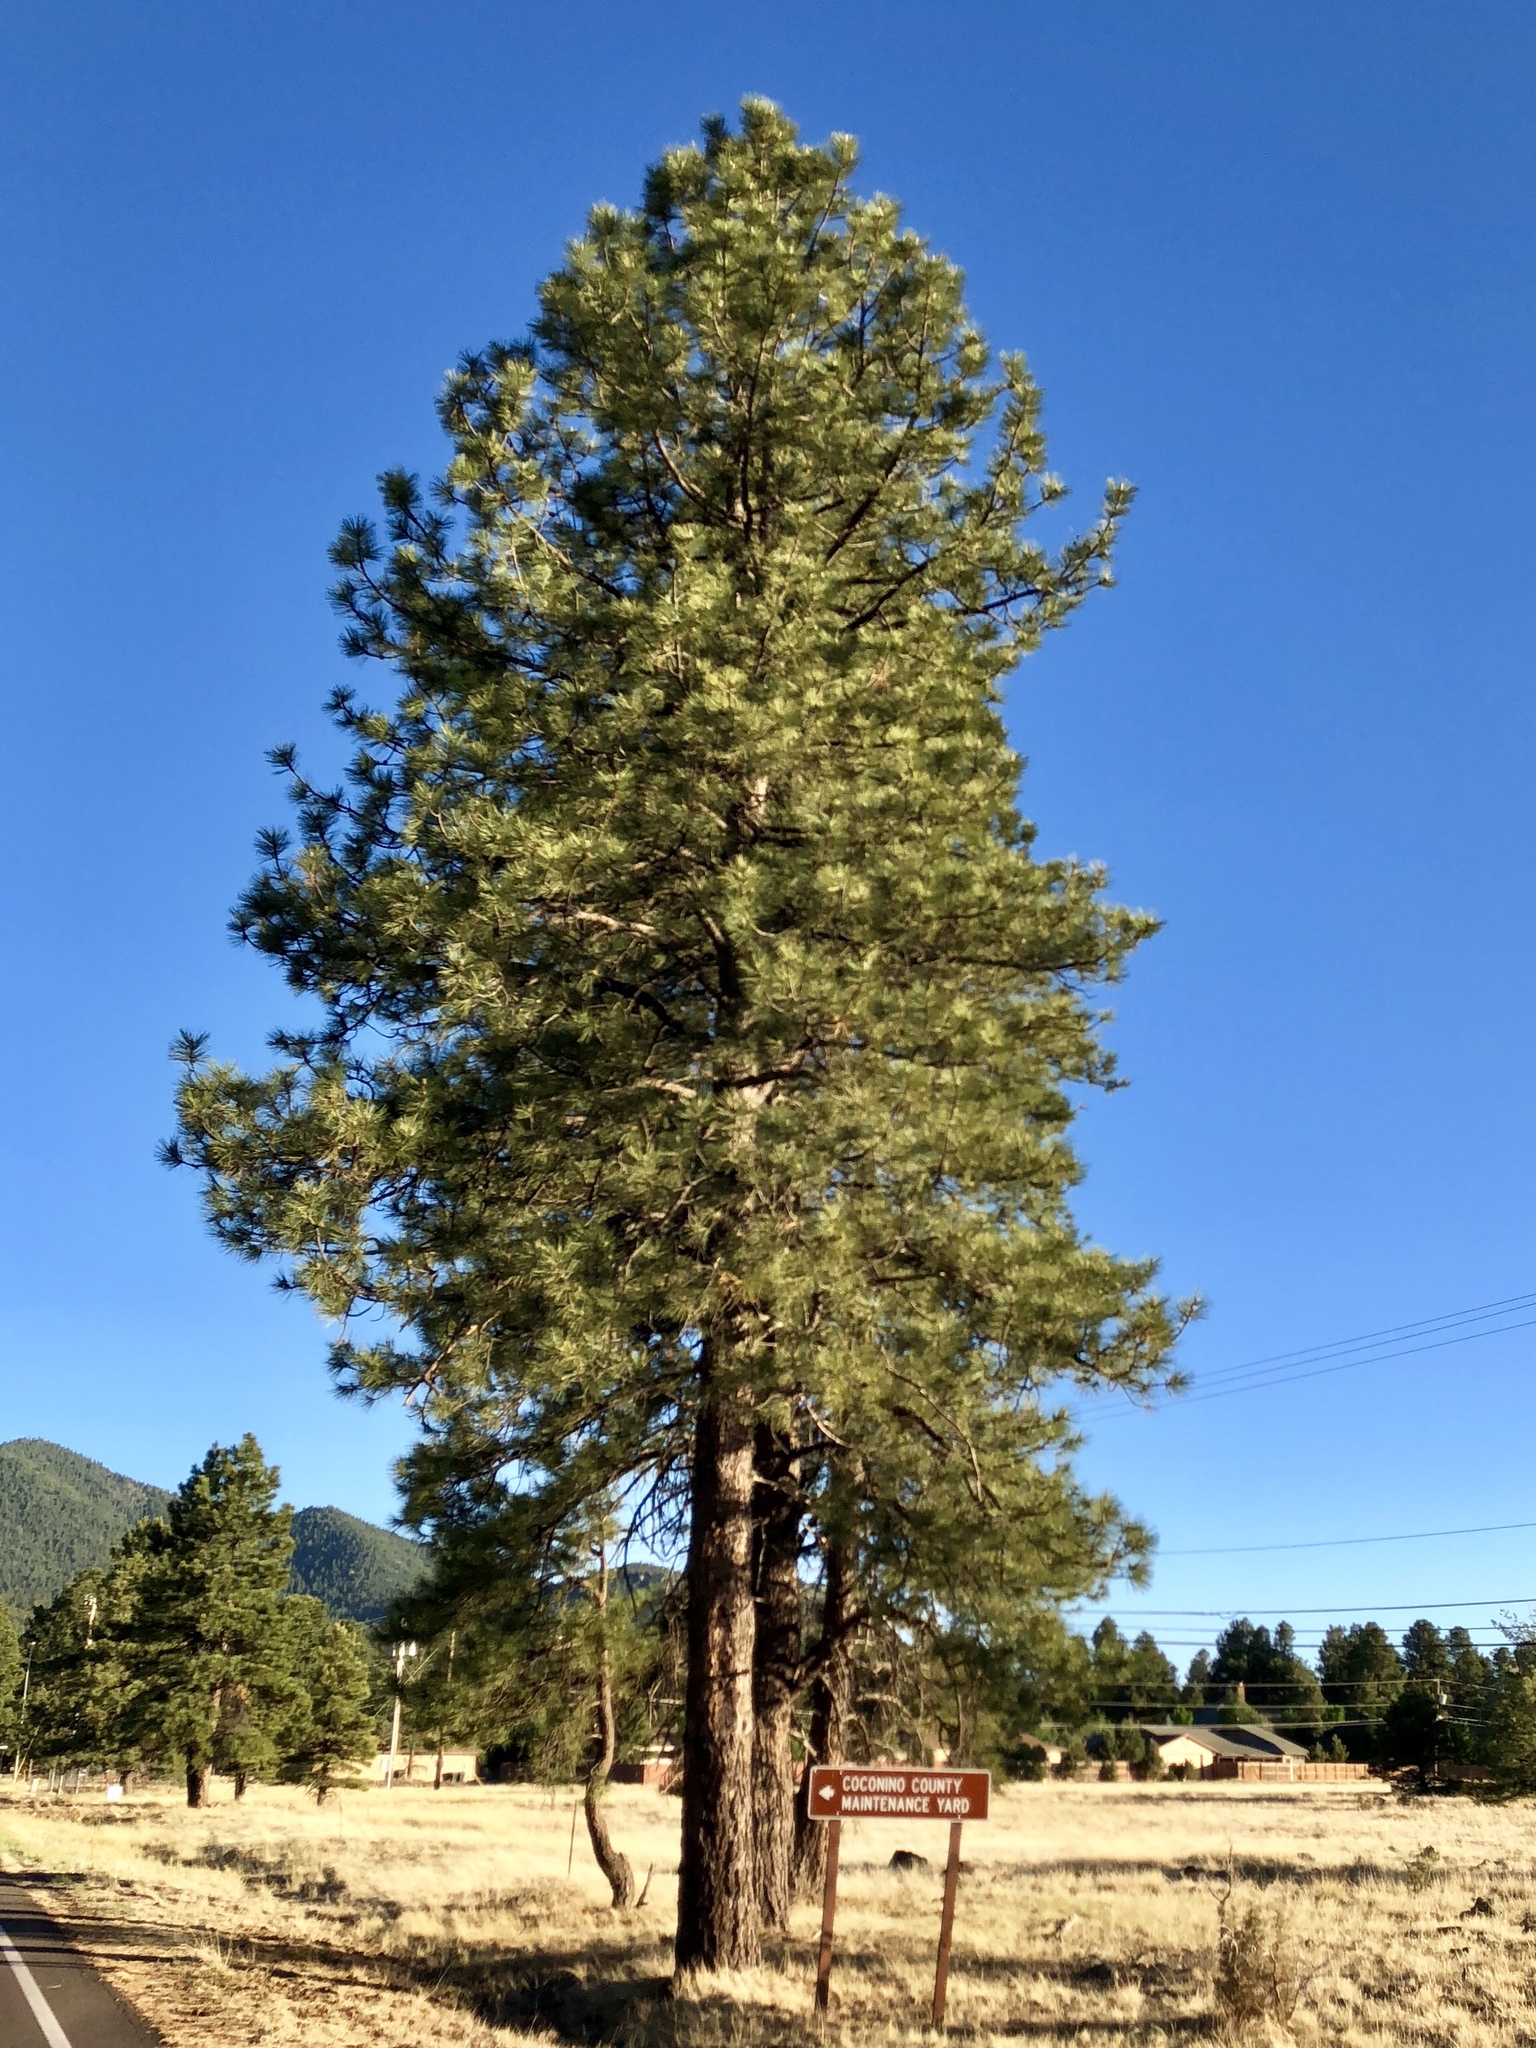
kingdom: Plantae
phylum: Tracheophyta
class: Pinopsida
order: Pinales
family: Pinaceae
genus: Pinus
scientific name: Pinus ponderosa
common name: Western yellow-pine
